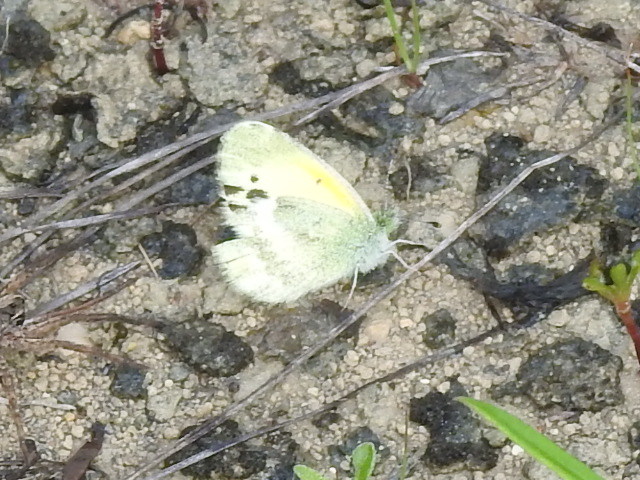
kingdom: Animalia
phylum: Arthropoda
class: Insecta
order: Lepidoptera
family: Pieridae
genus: Nathalis
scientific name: Nathalis iole
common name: Dainty sulphur
